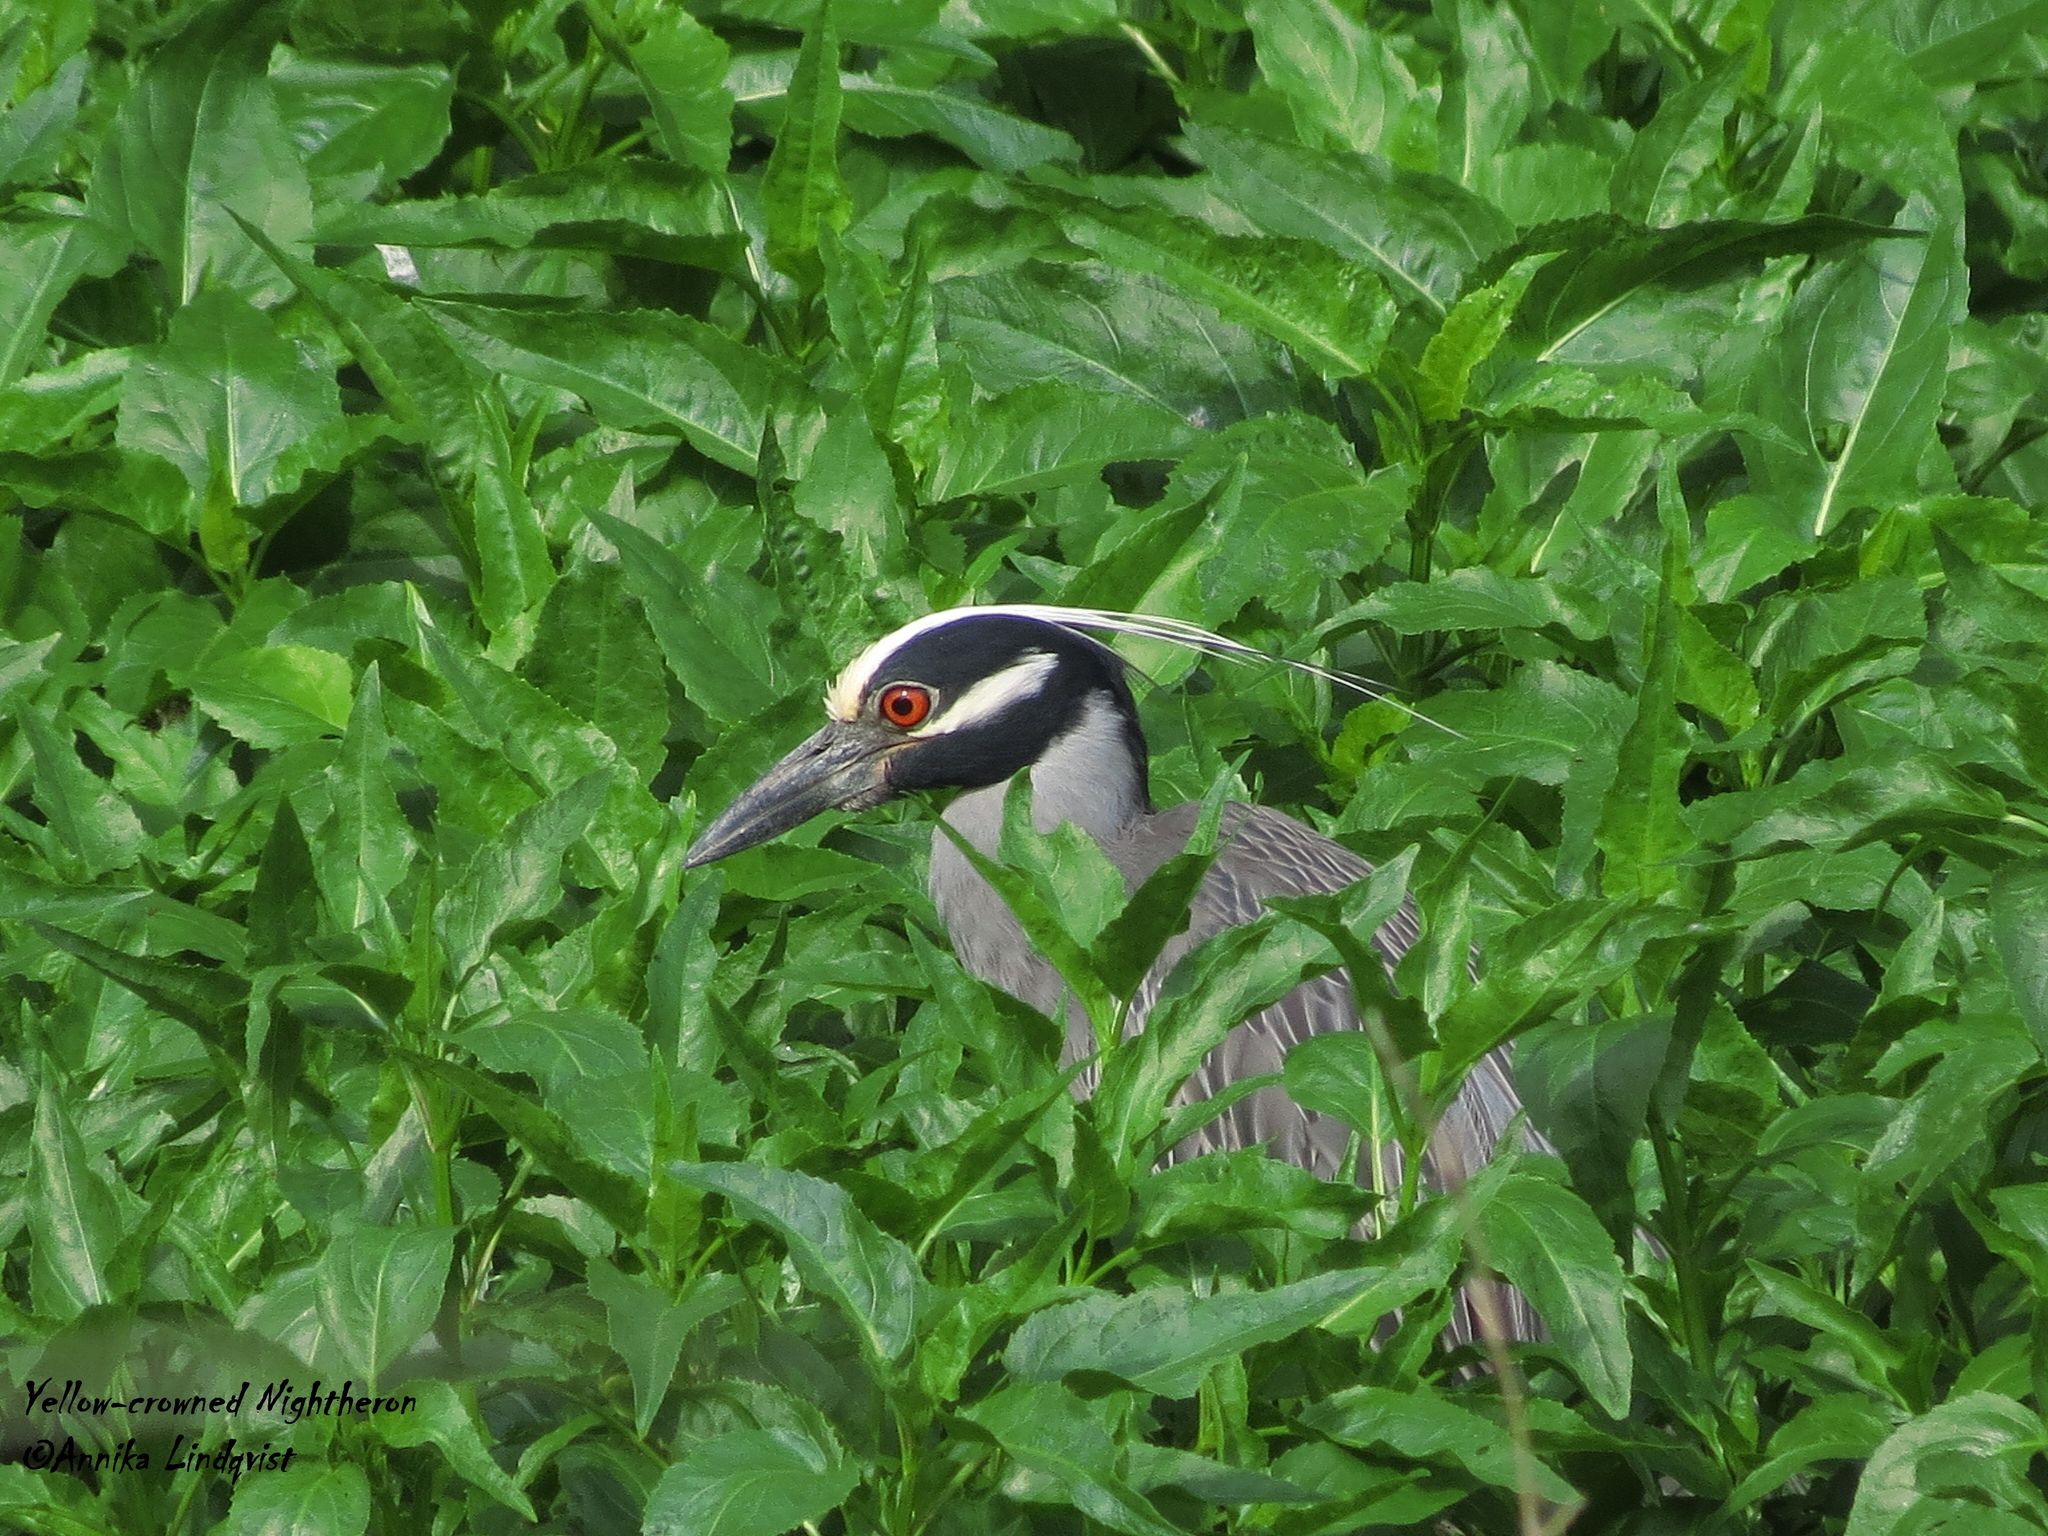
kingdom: Animalia
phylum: Chordata
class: Aves
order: Pelecaniformes
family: Ardeidae
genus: Nyctanassa
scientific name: Nyctanassa violacea
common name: Yellow-crowned night heron
